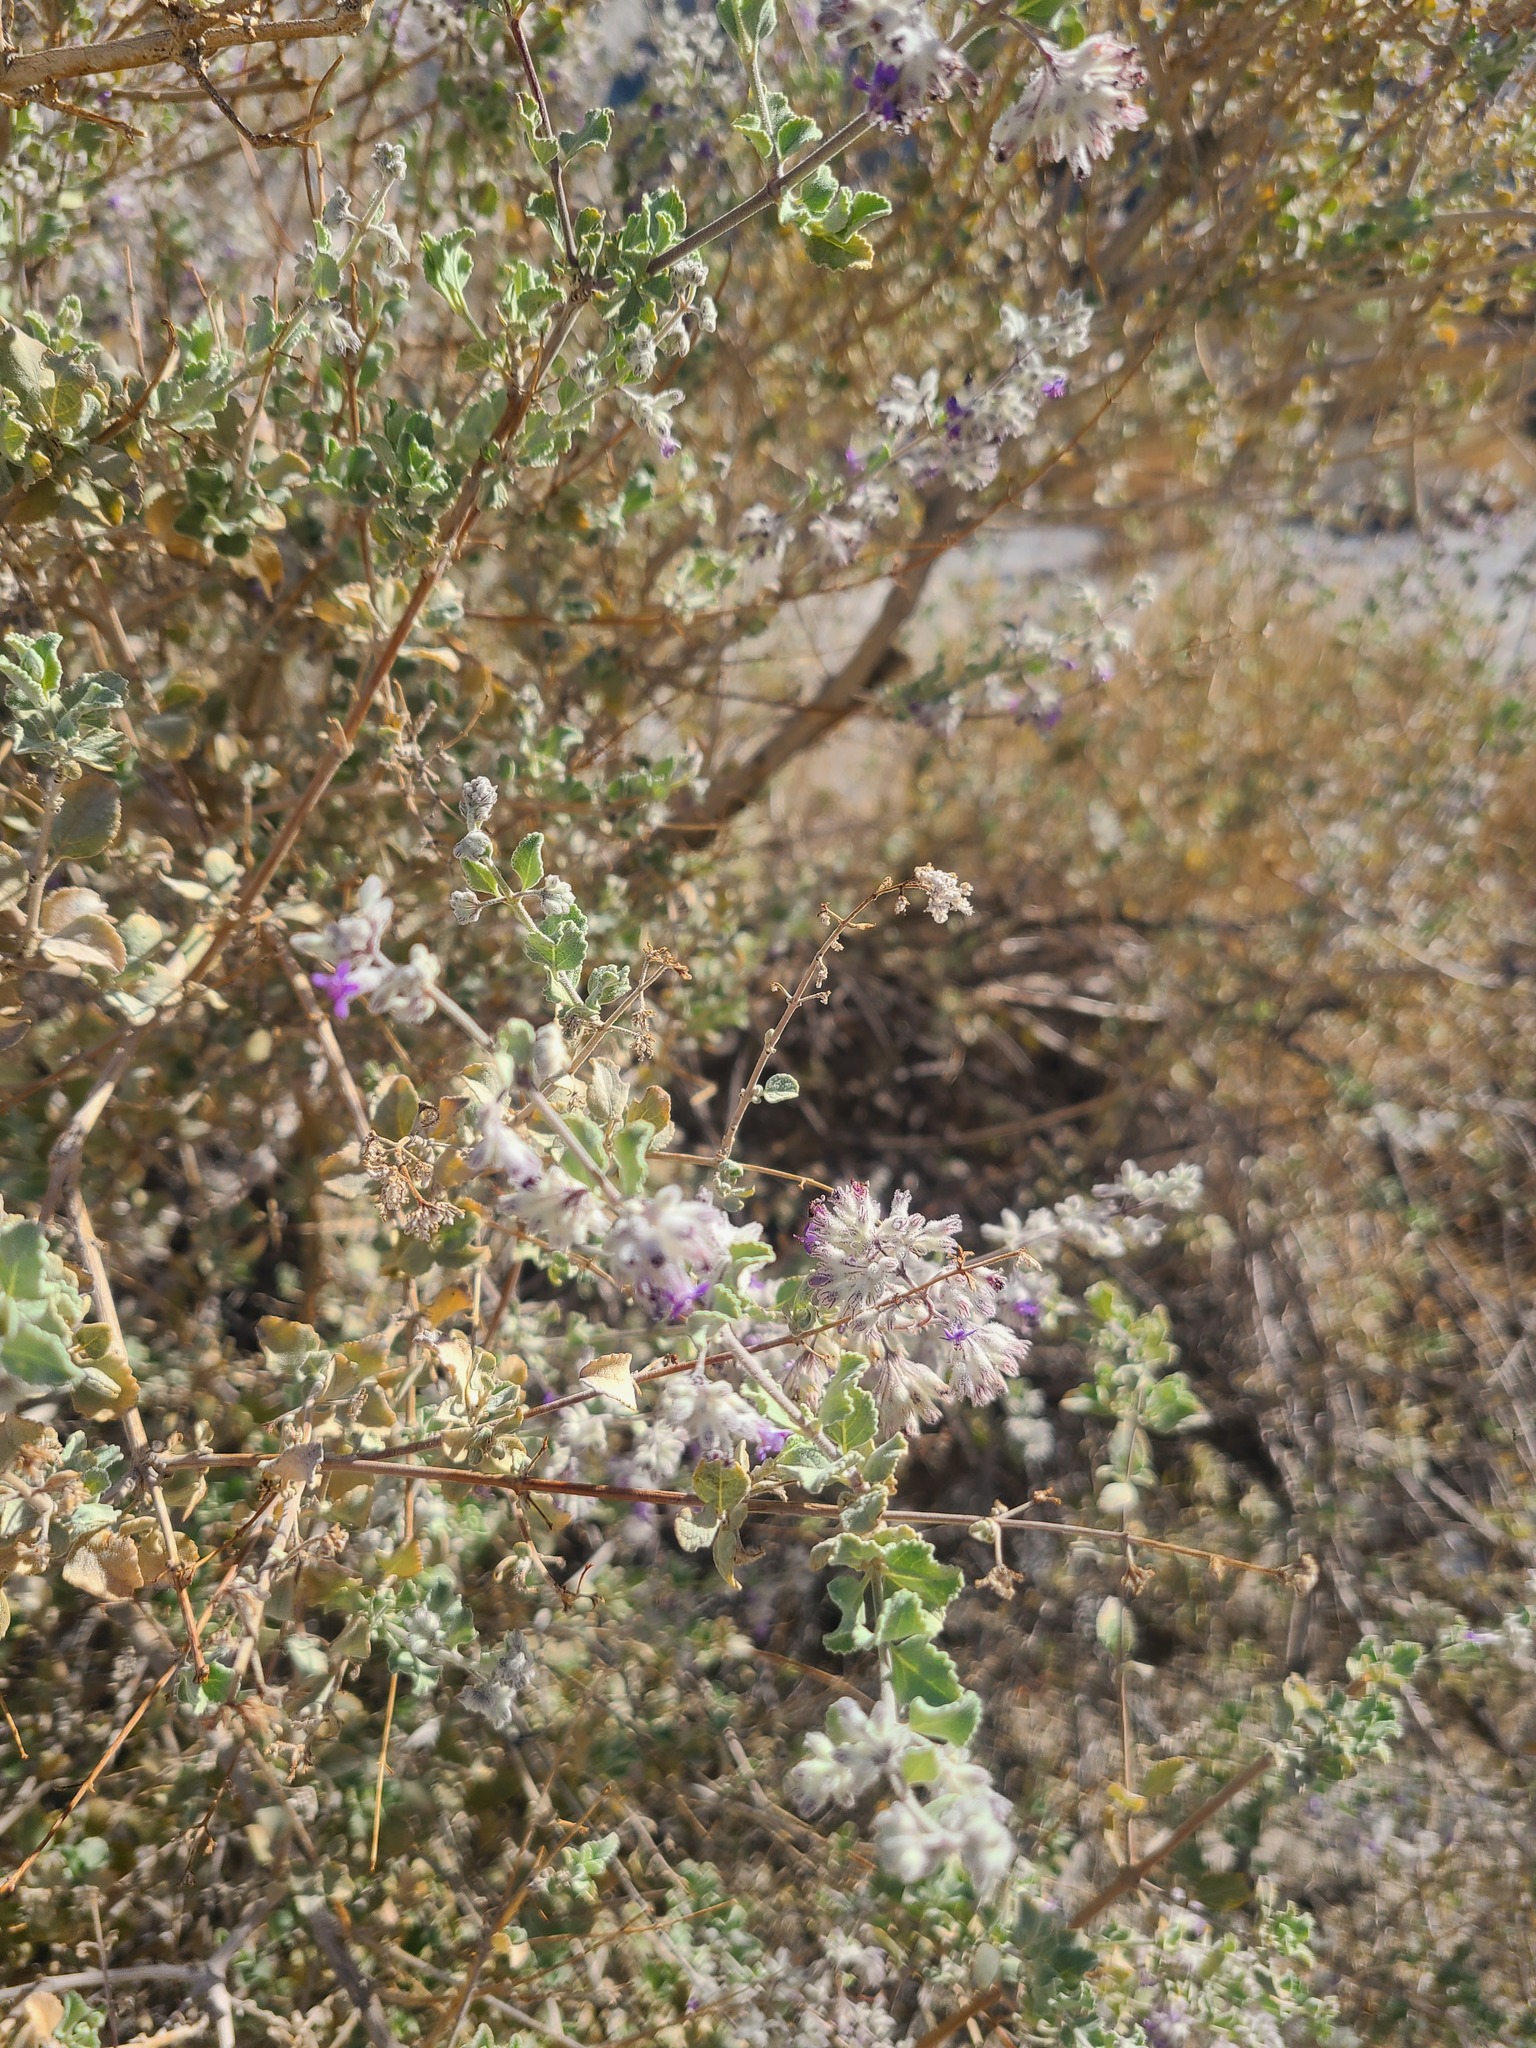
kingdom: Plantae
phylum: Tracheophyta
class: Magnoliopsida
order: Lamiales
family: Lamiaceae
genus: Condea
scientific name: Condea emoryi
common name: Chia
